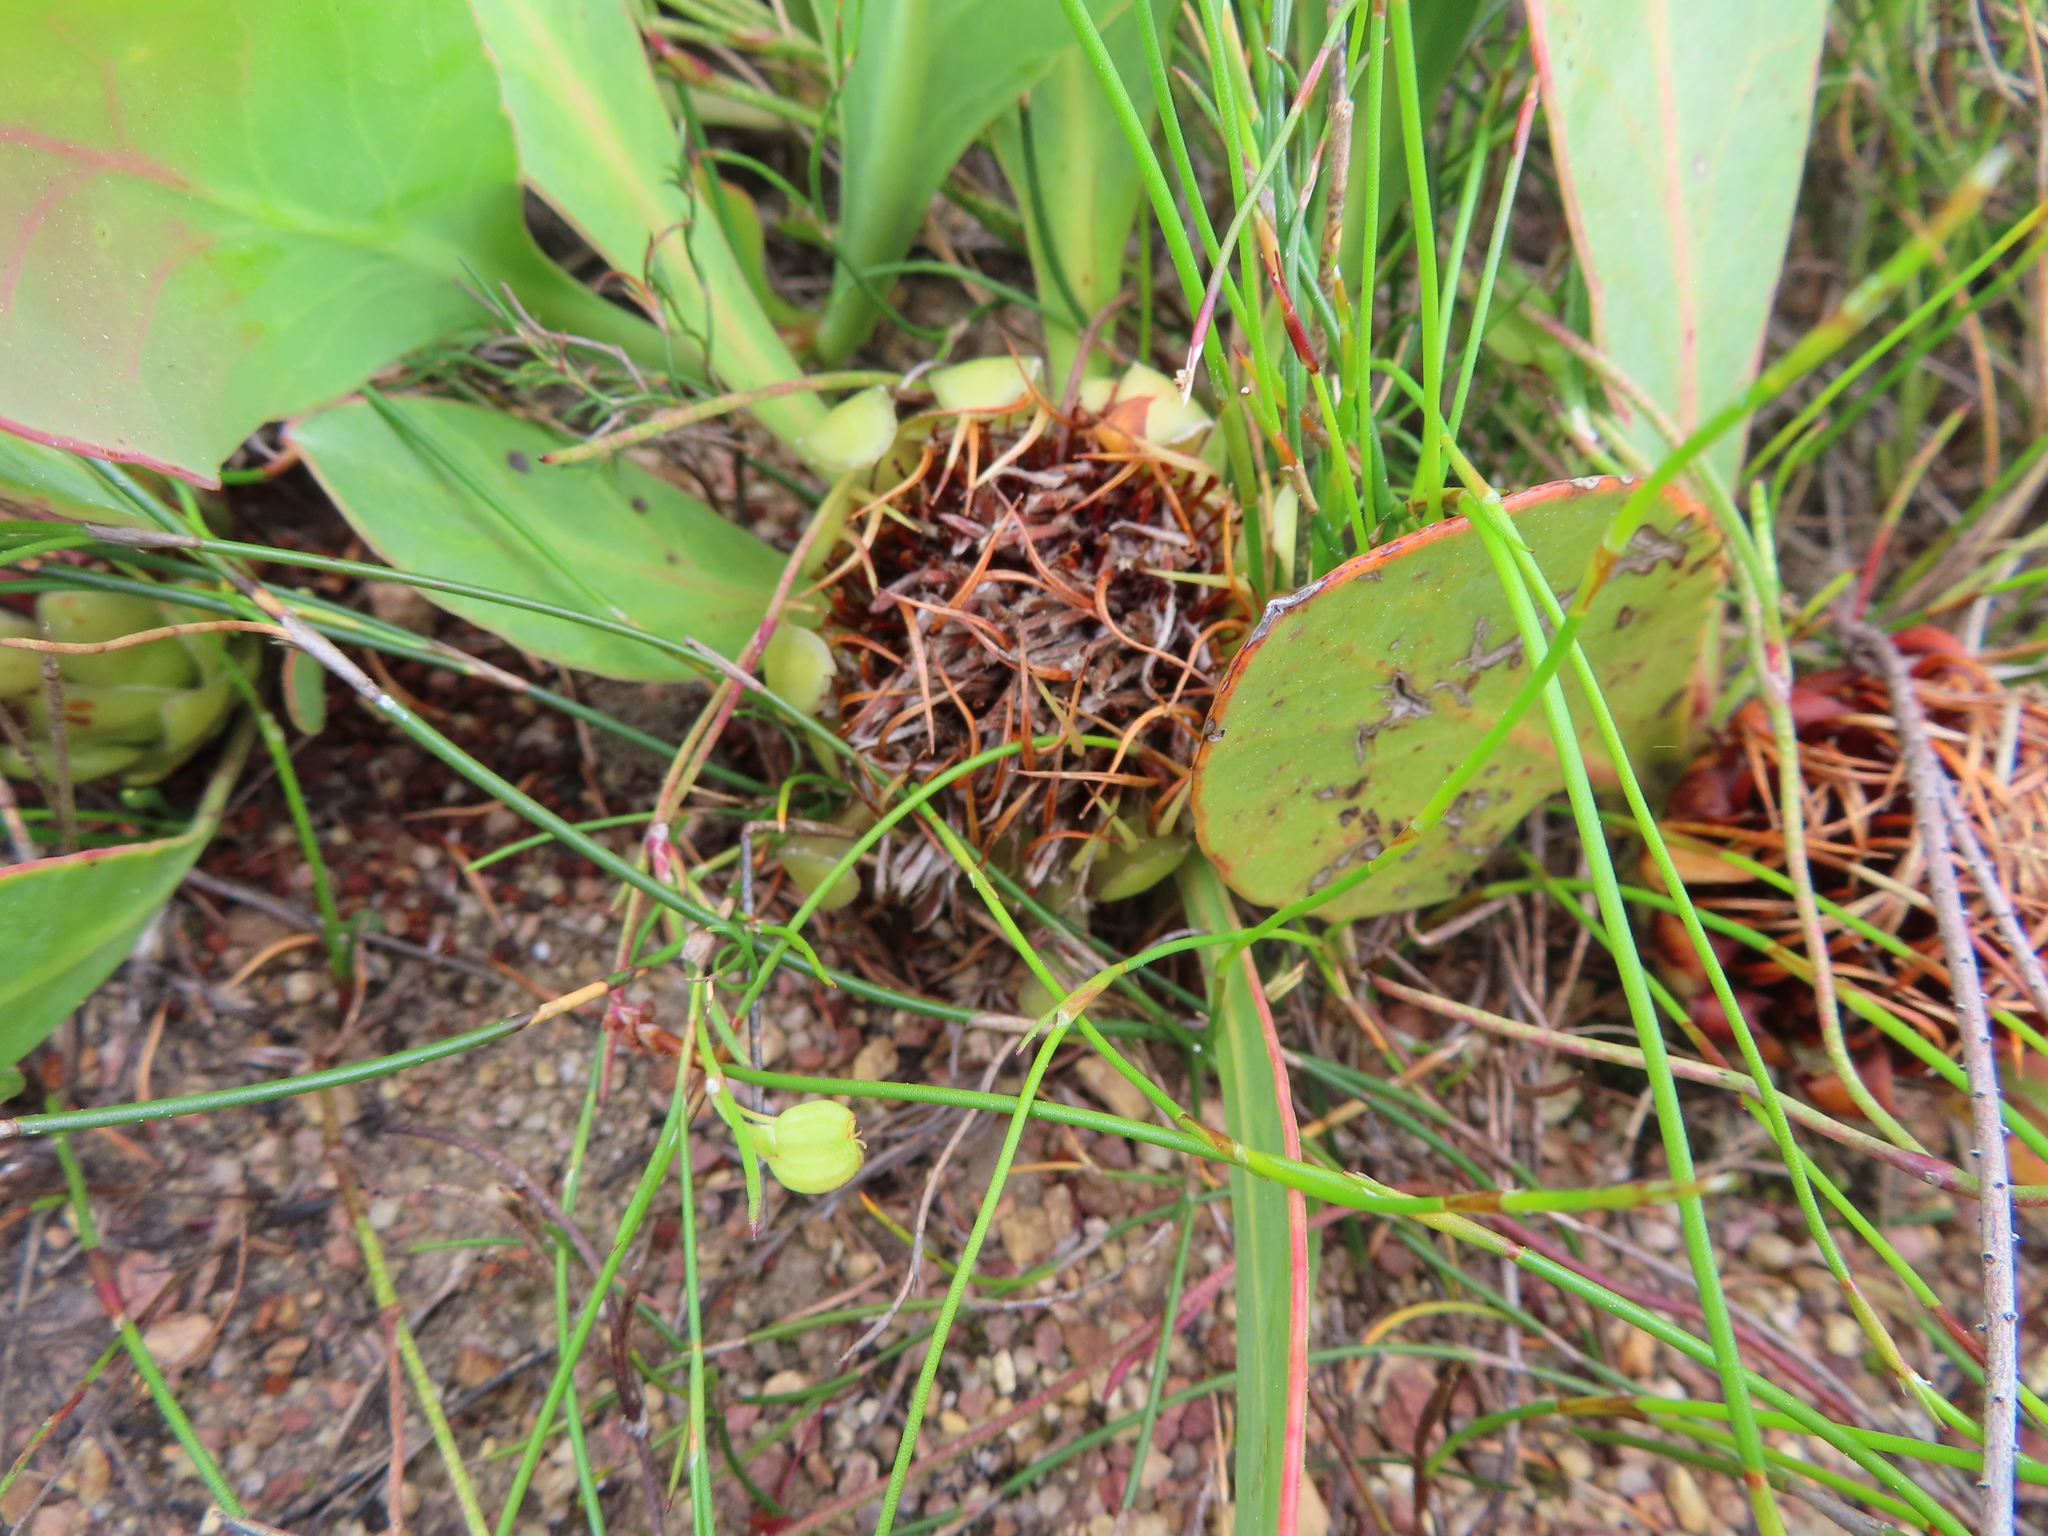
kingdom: Plantae
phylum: Tracheophyta
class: Magnoliopsida
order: Proteales
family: Proteaceae
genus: Protea
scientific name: Protea acaulos
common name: Common ground sugarbush
